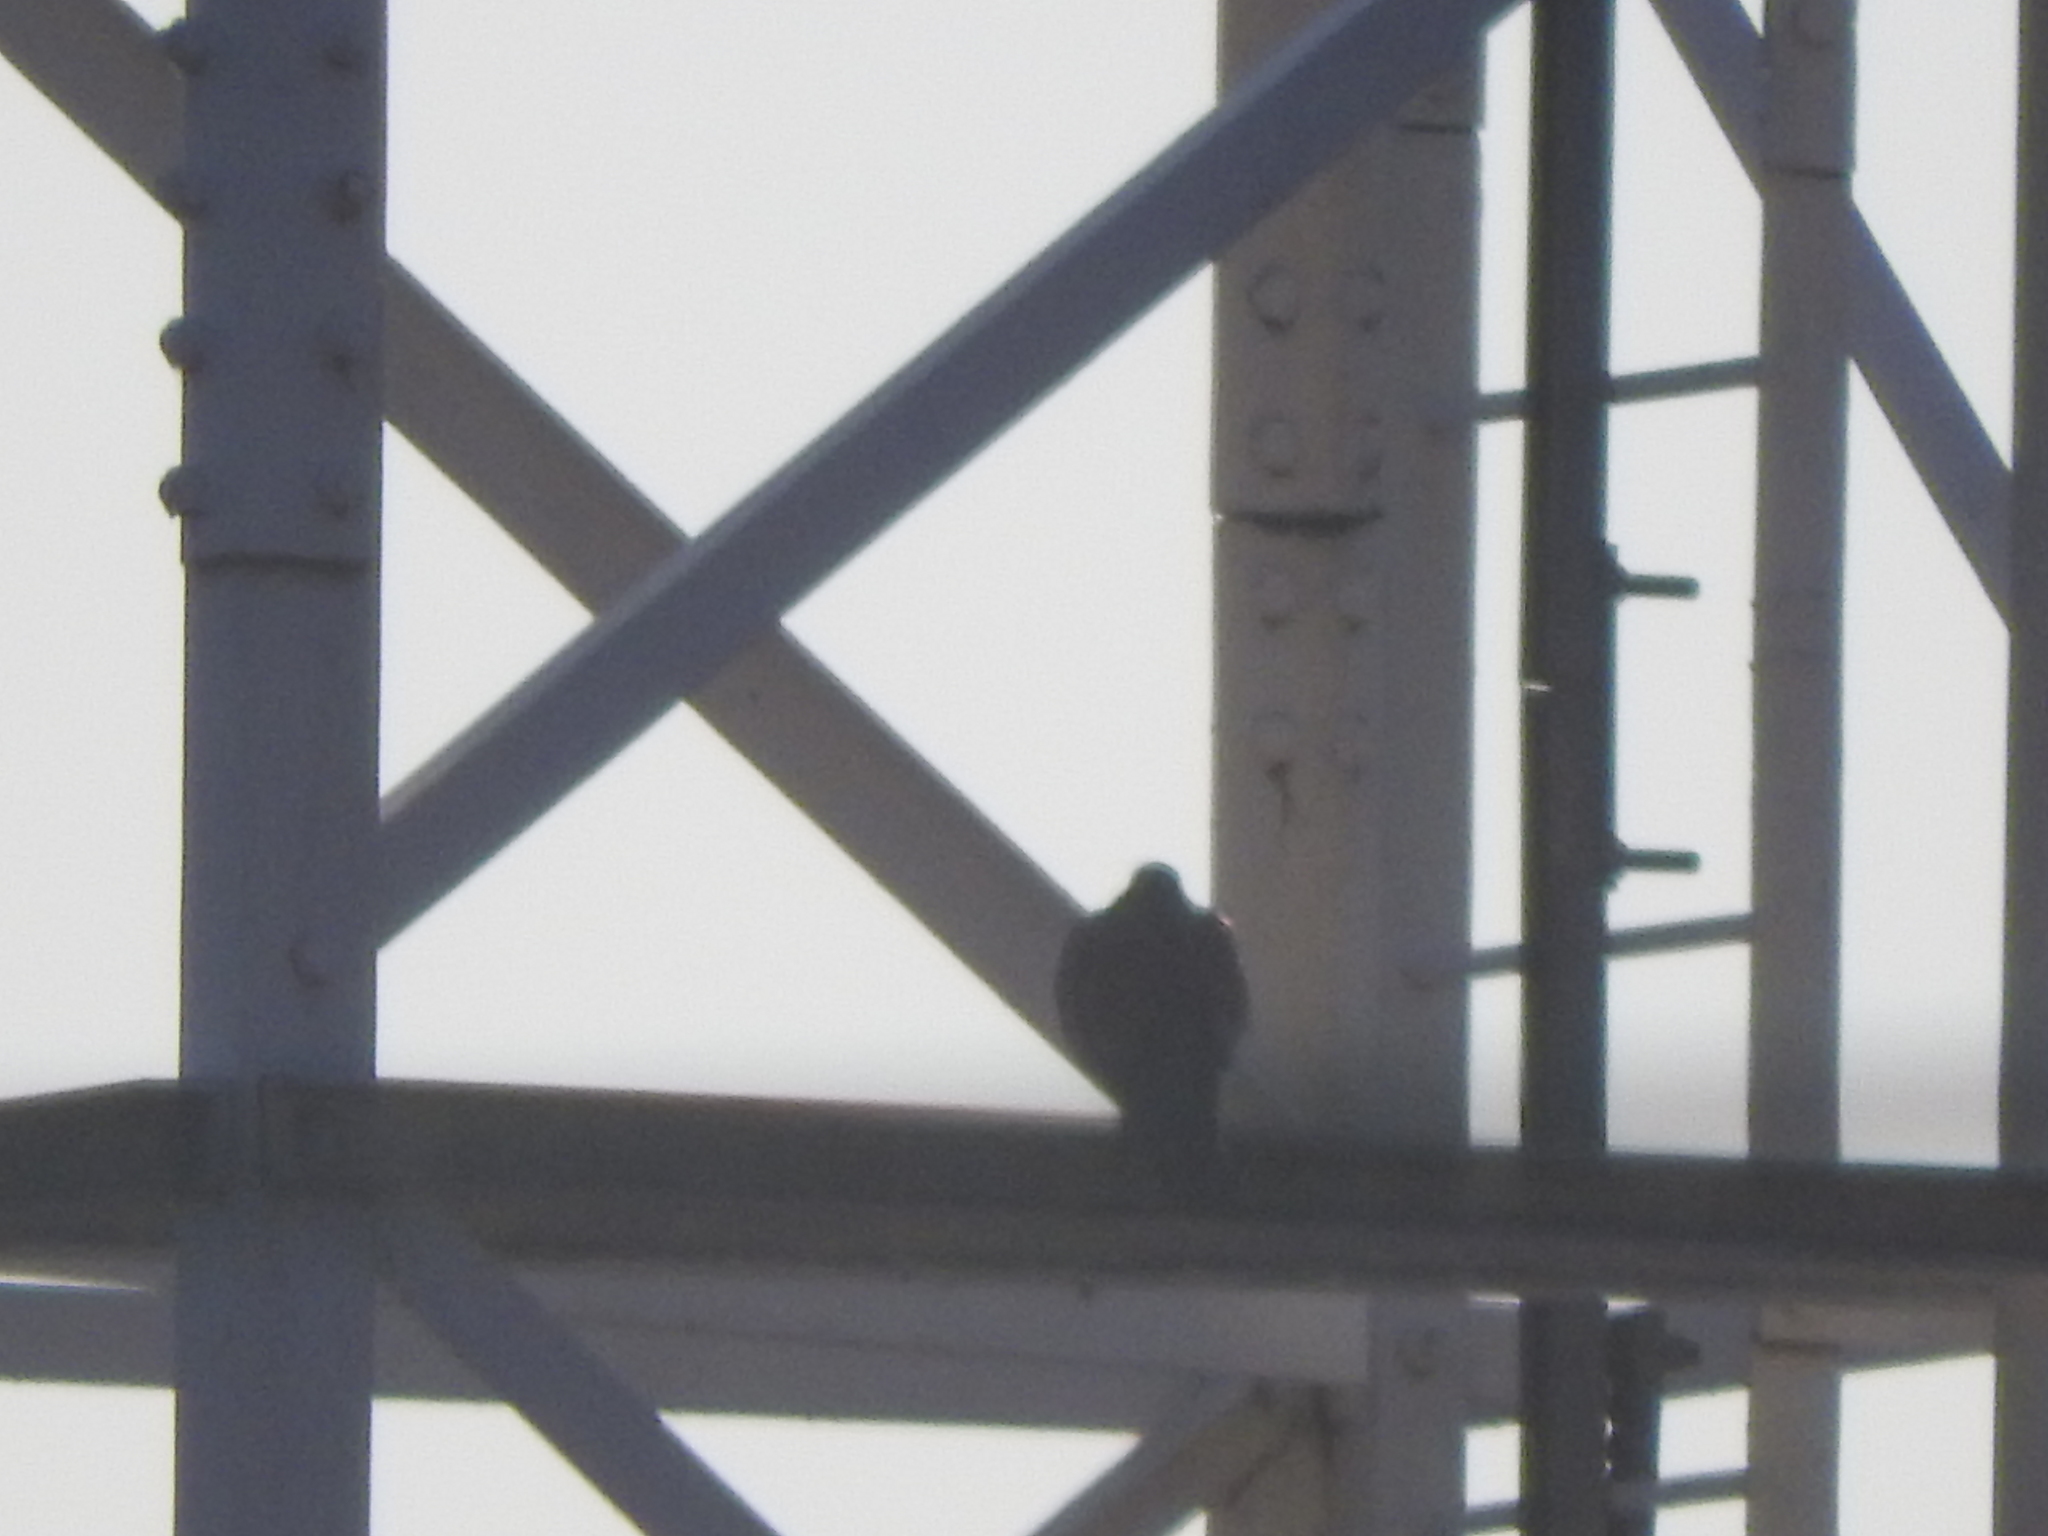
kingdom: Animalia
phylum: Chordata
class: Aves
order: Columbiformes
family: Columbidae
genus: Streptopelia
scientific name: Streptopelia decaocto
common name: Eurasian collared dove
